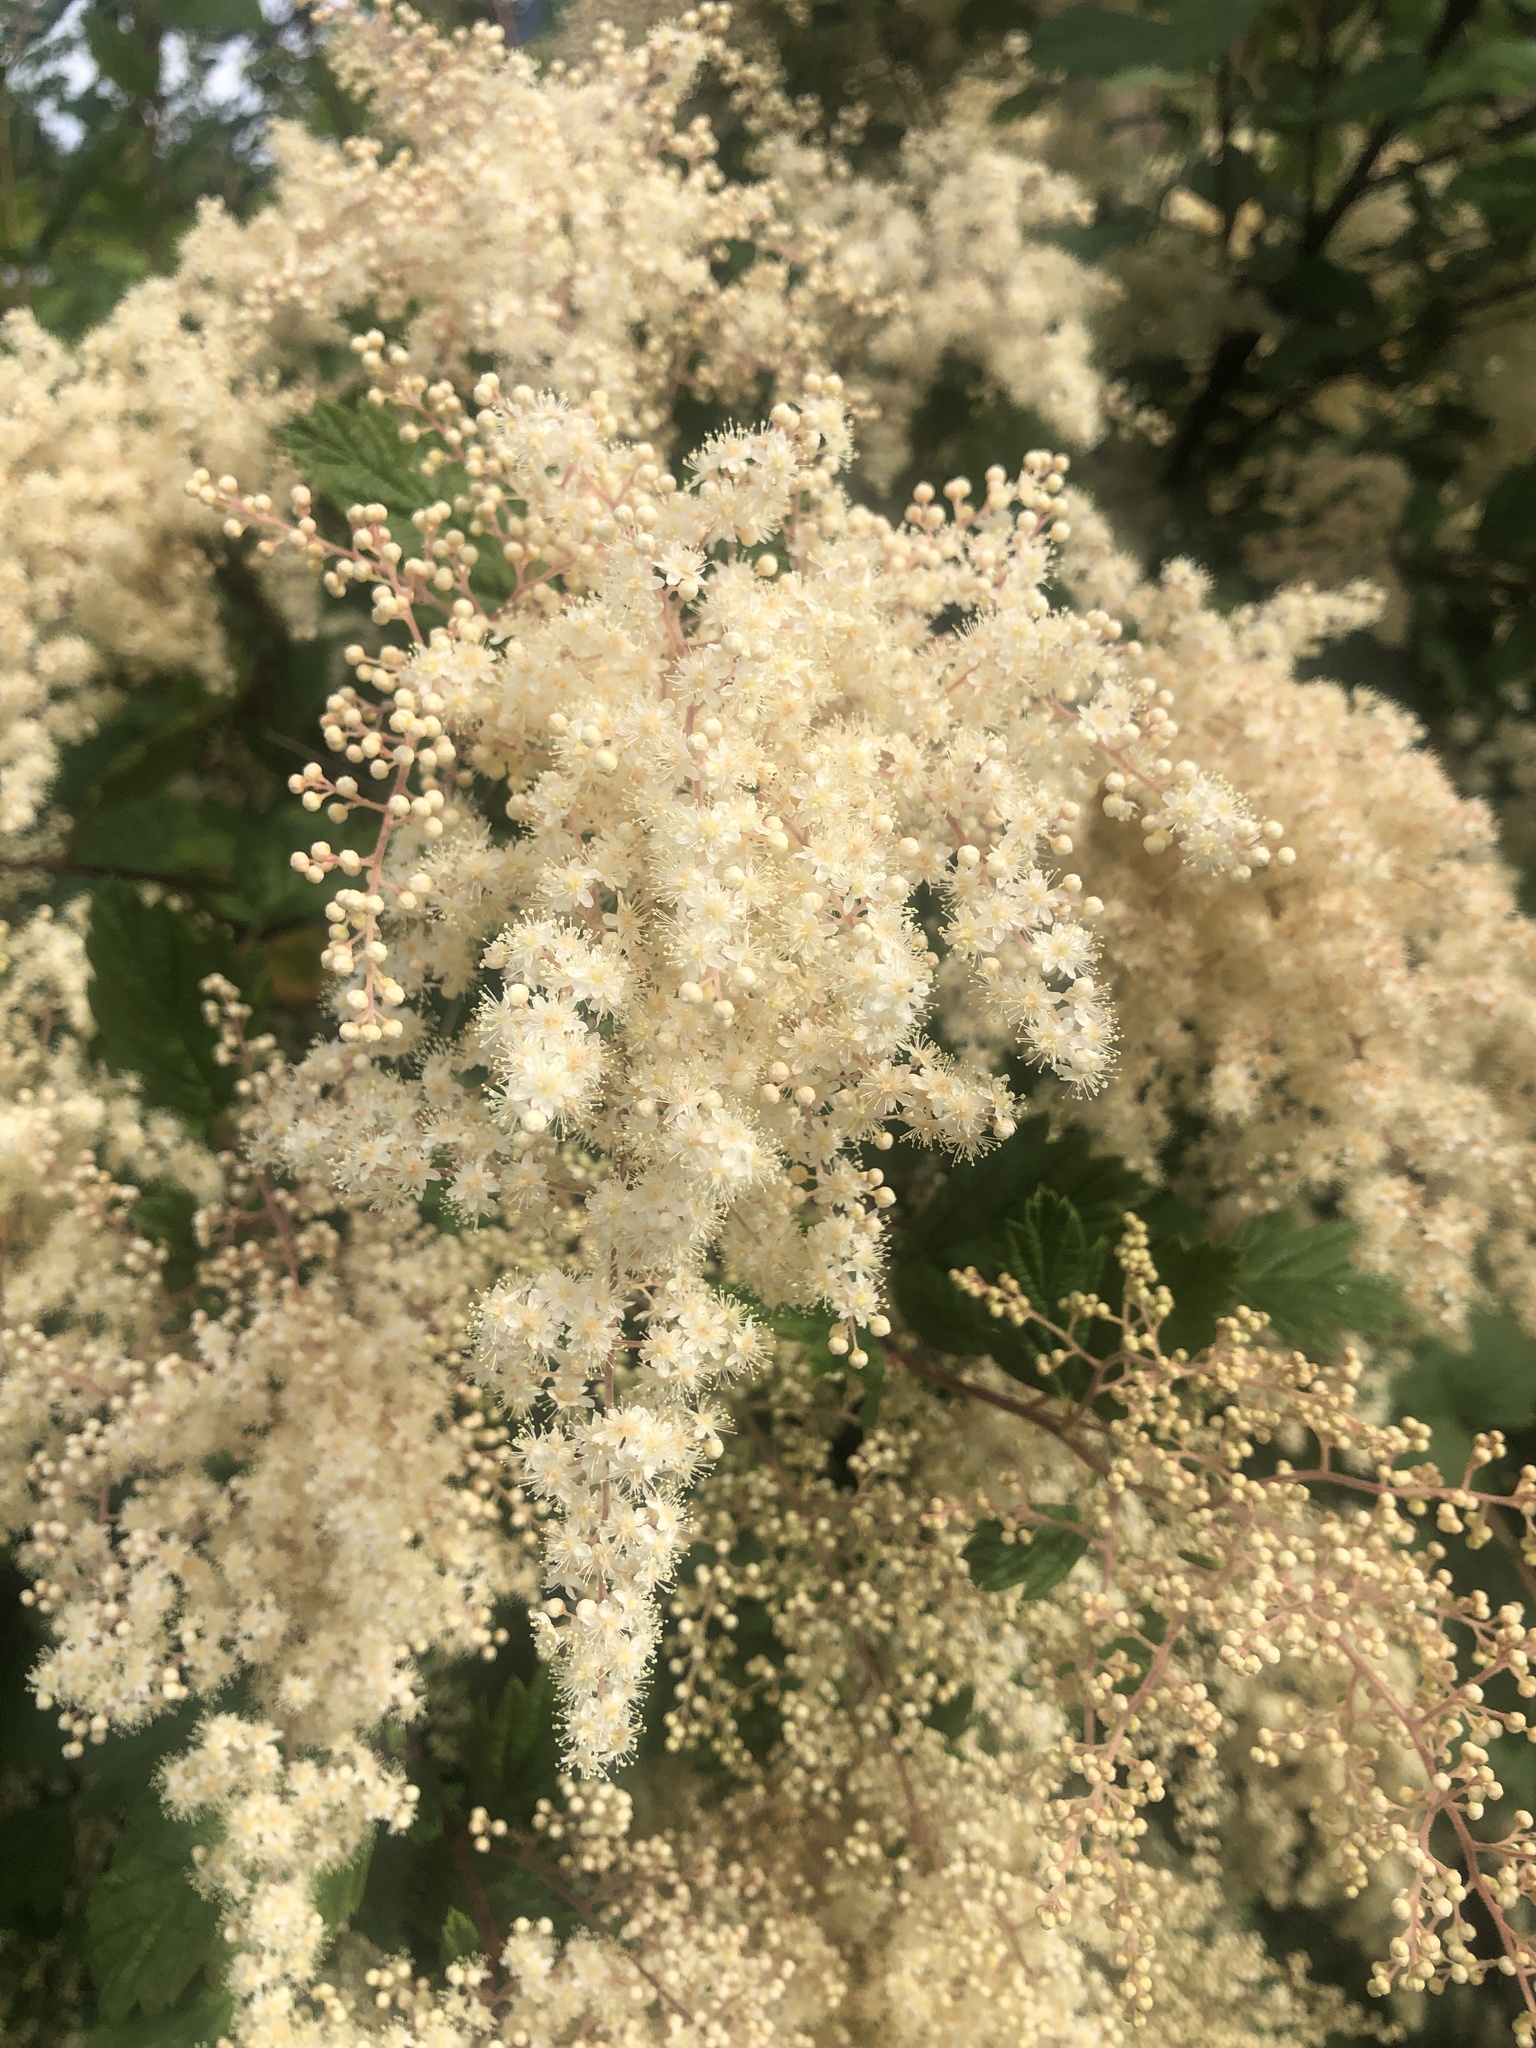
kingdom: Plantae
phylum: Tracheophyta
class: Magnoliopsida
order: Rosales
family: Rosaceae
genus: Holodiscus
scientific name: Holodiscus discolor
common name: Oceanspray
